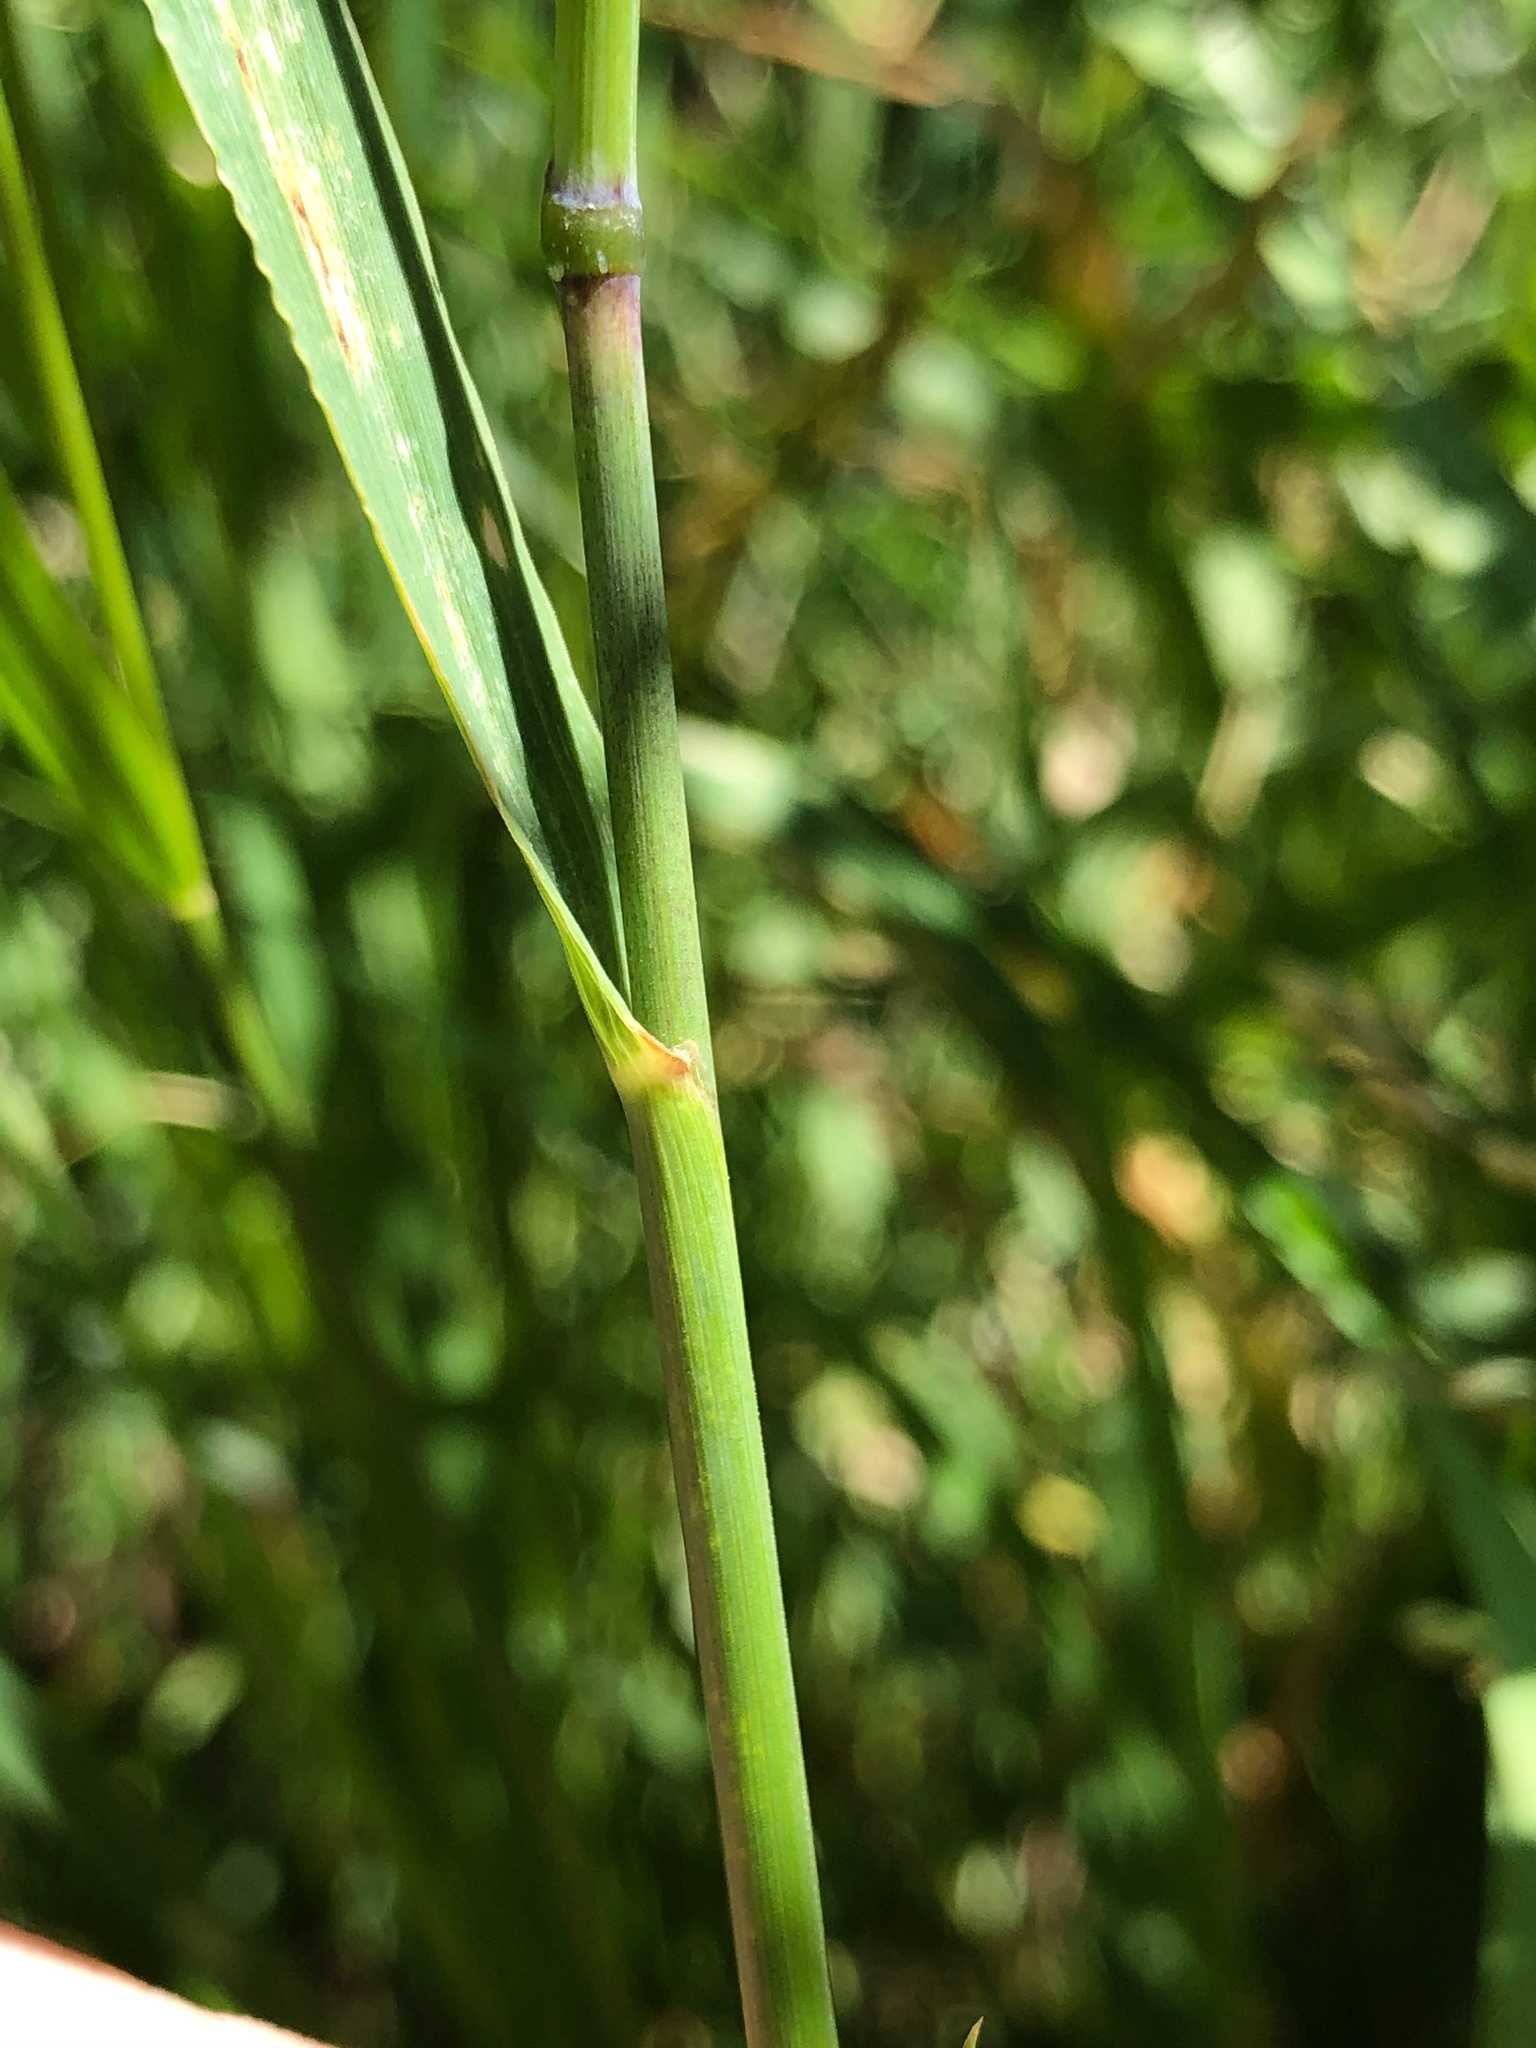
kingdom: Plantae
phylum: Tracheophyta
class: Liliopsida
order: Poales
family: Poaceae
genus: Elymus
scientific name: Elymus repens
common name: Quackgrass
